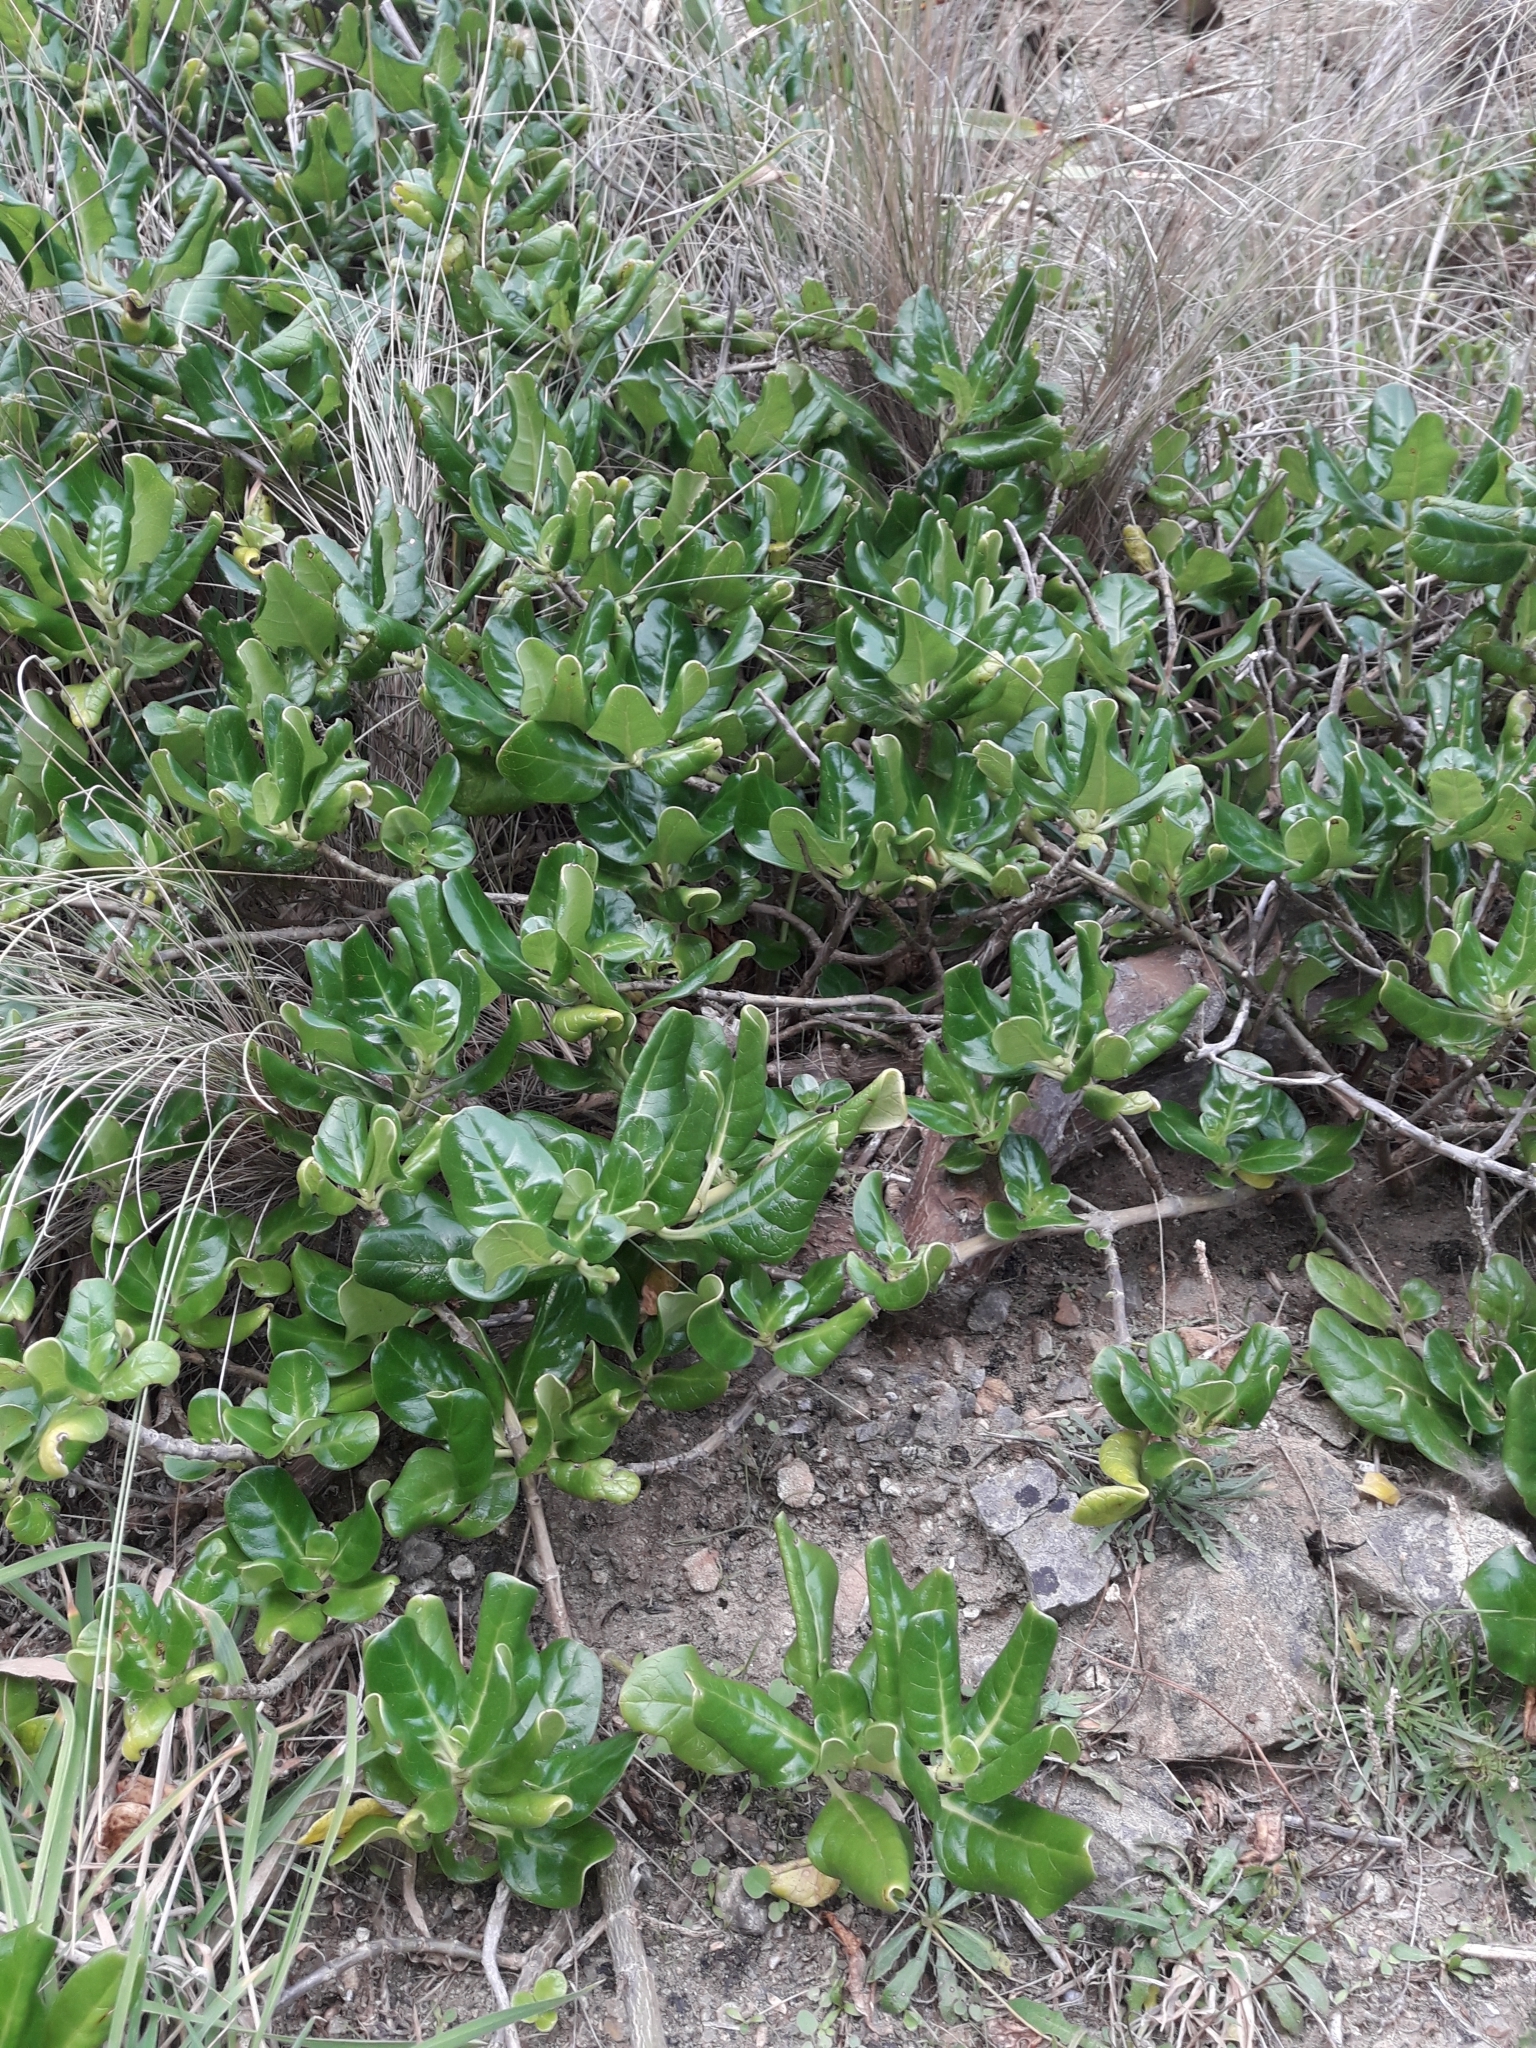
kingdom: Plantae
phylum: Tracheophyta
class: Magnoliopsida
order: Gentianales
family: Rubiaceae
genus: Coprosma
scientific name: Coprosma repens
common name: Tree bedstraw
